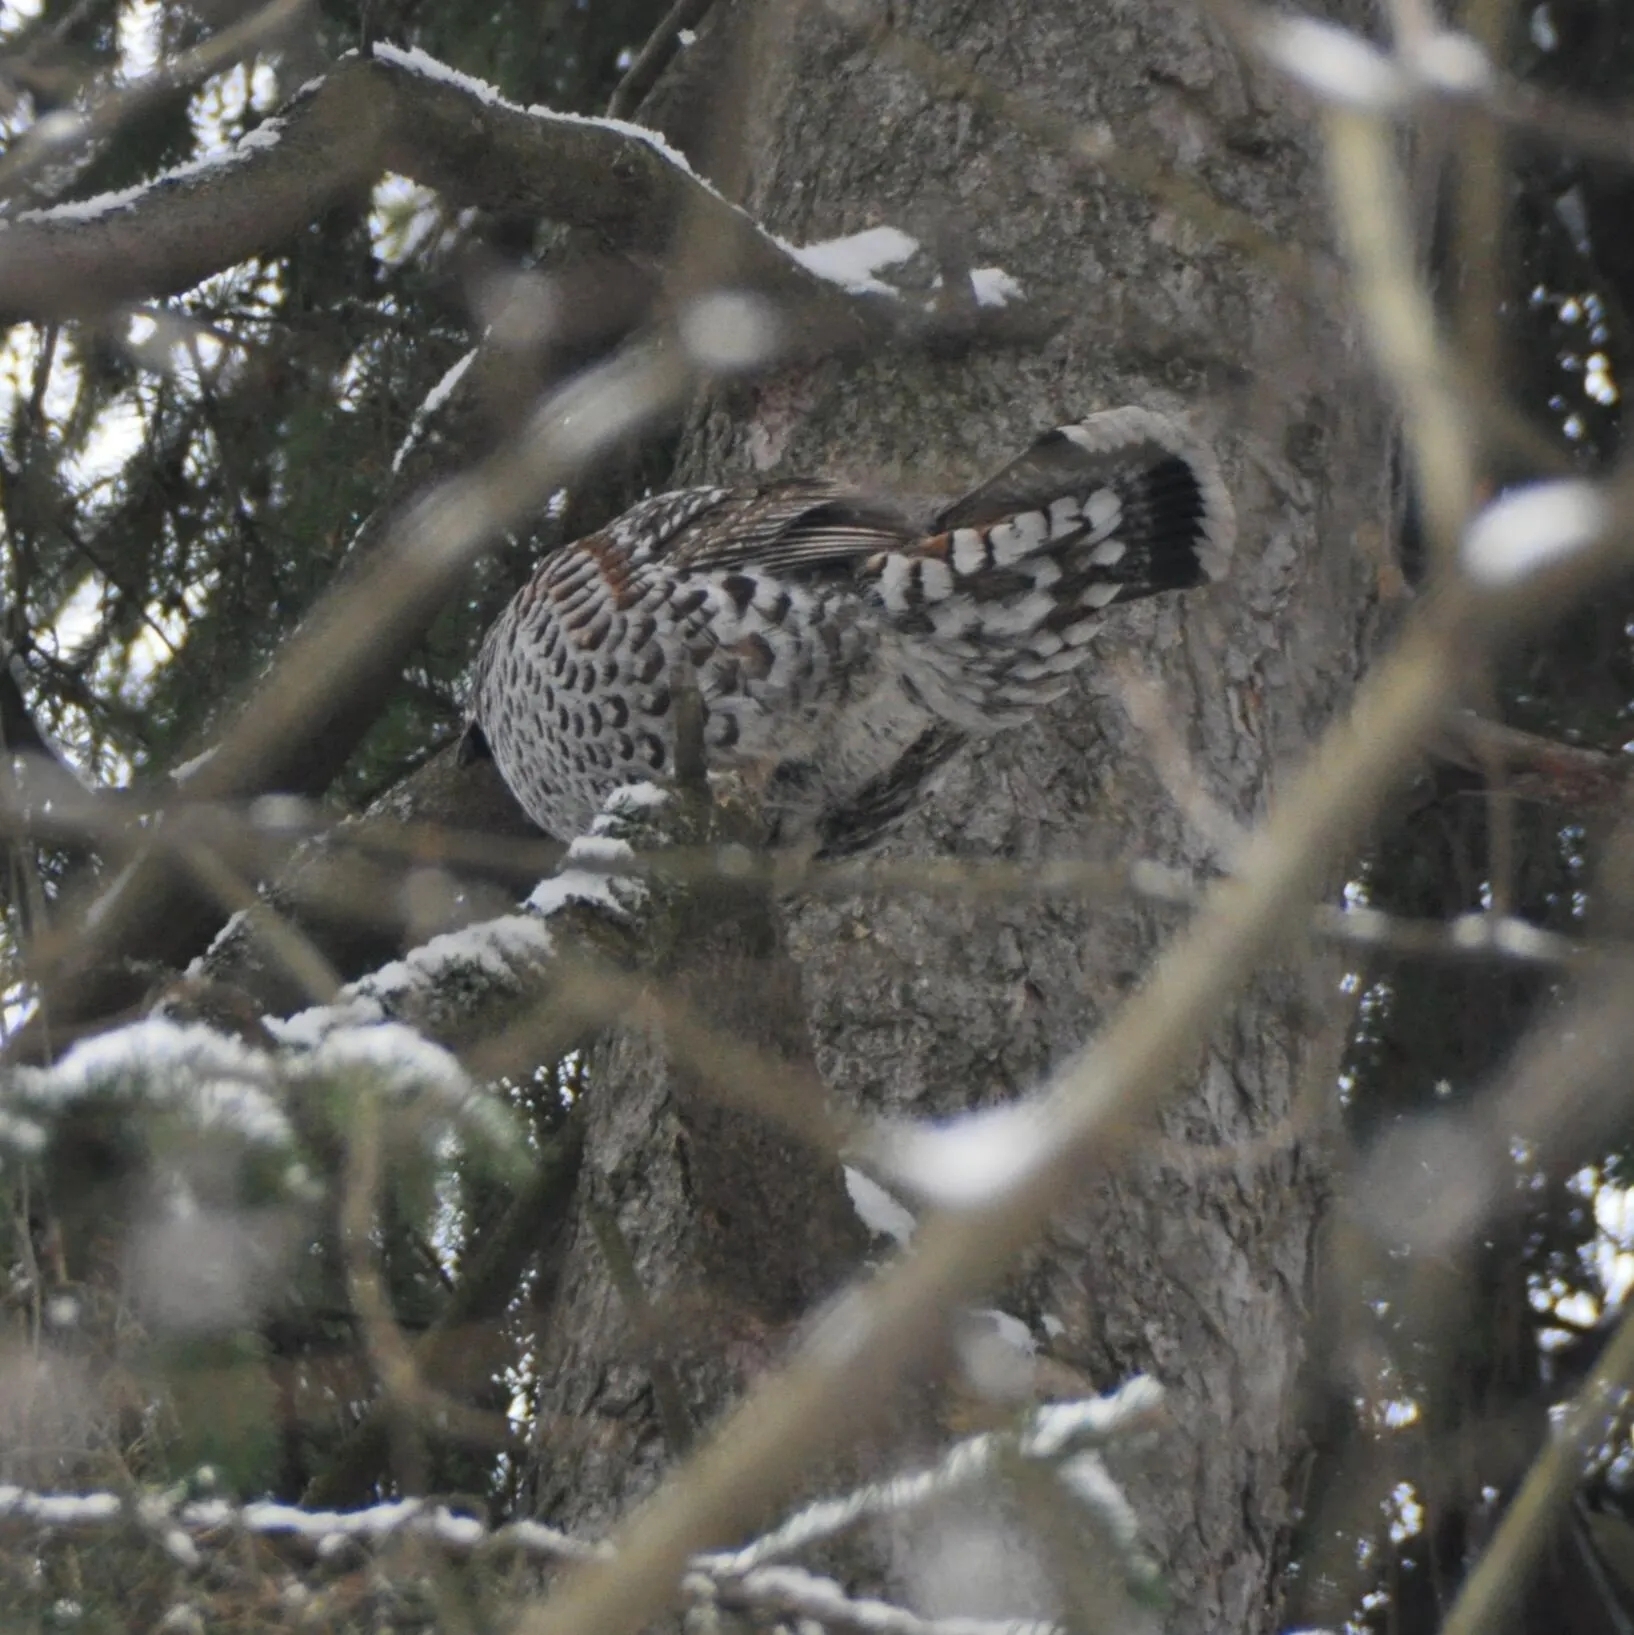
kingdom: Animalia
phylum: Chordata
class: Aves
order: Galliformes
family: Phasianidae
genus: Tetrastes
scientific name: Tetrastes bonasia
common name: Hazel grouse
